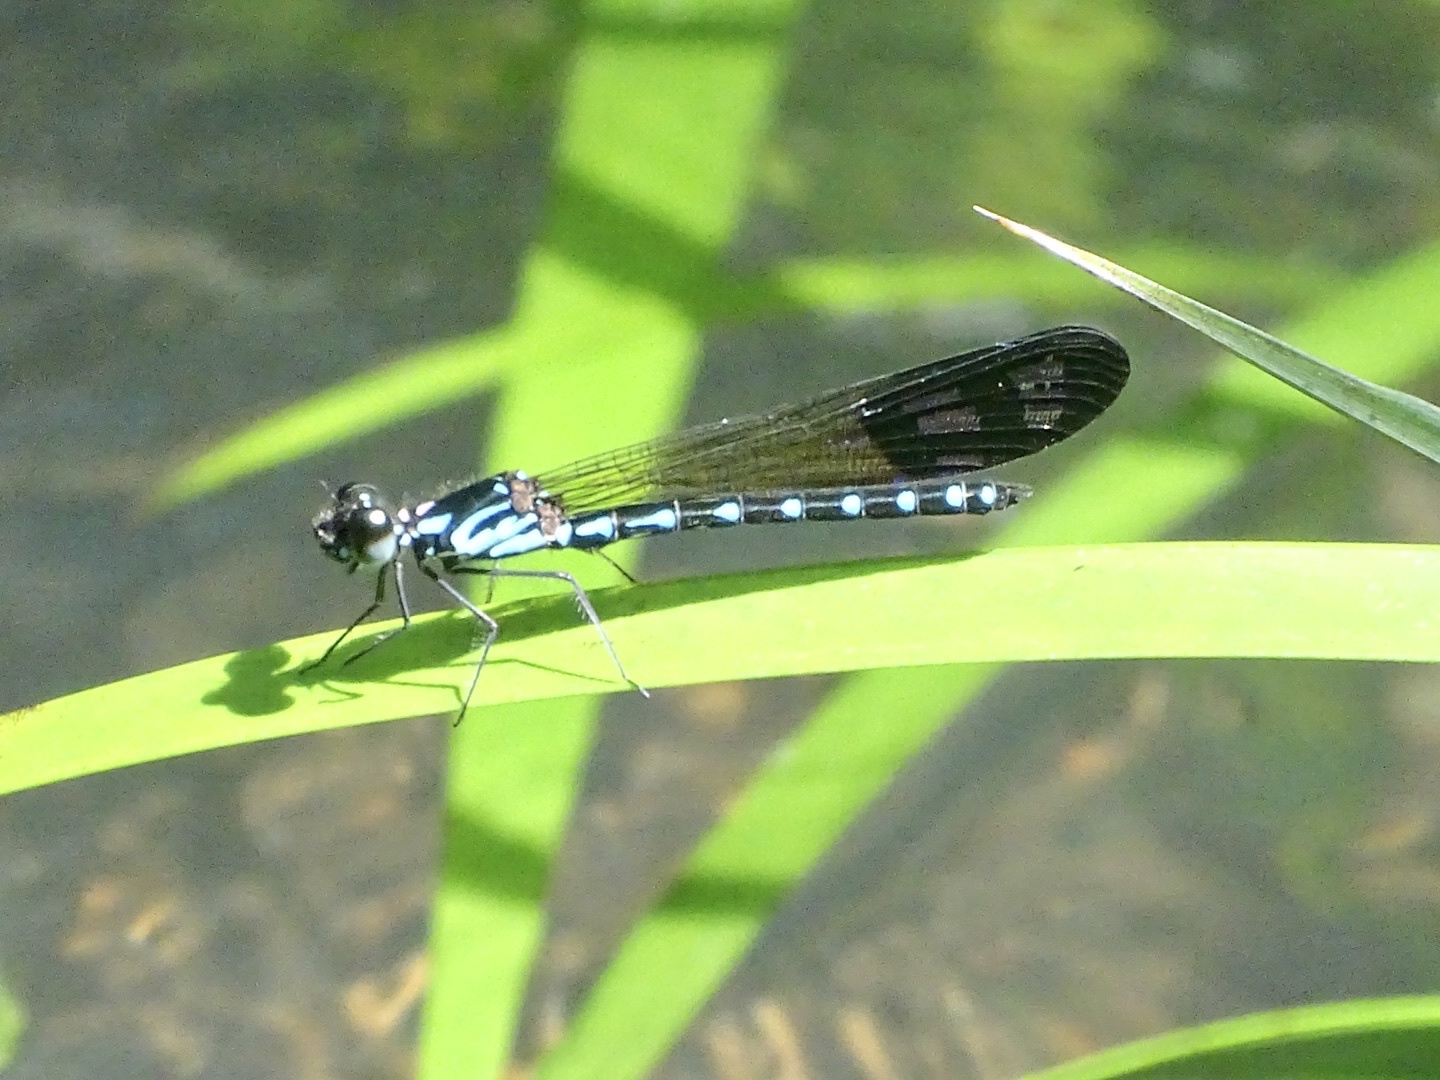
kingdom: Animalia
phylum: Arthropoda
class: Insecta
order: Odonata
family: Chlorocyphidae
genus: Heliocypha
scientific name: Heliocypha perforata
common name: Common blue jewel
